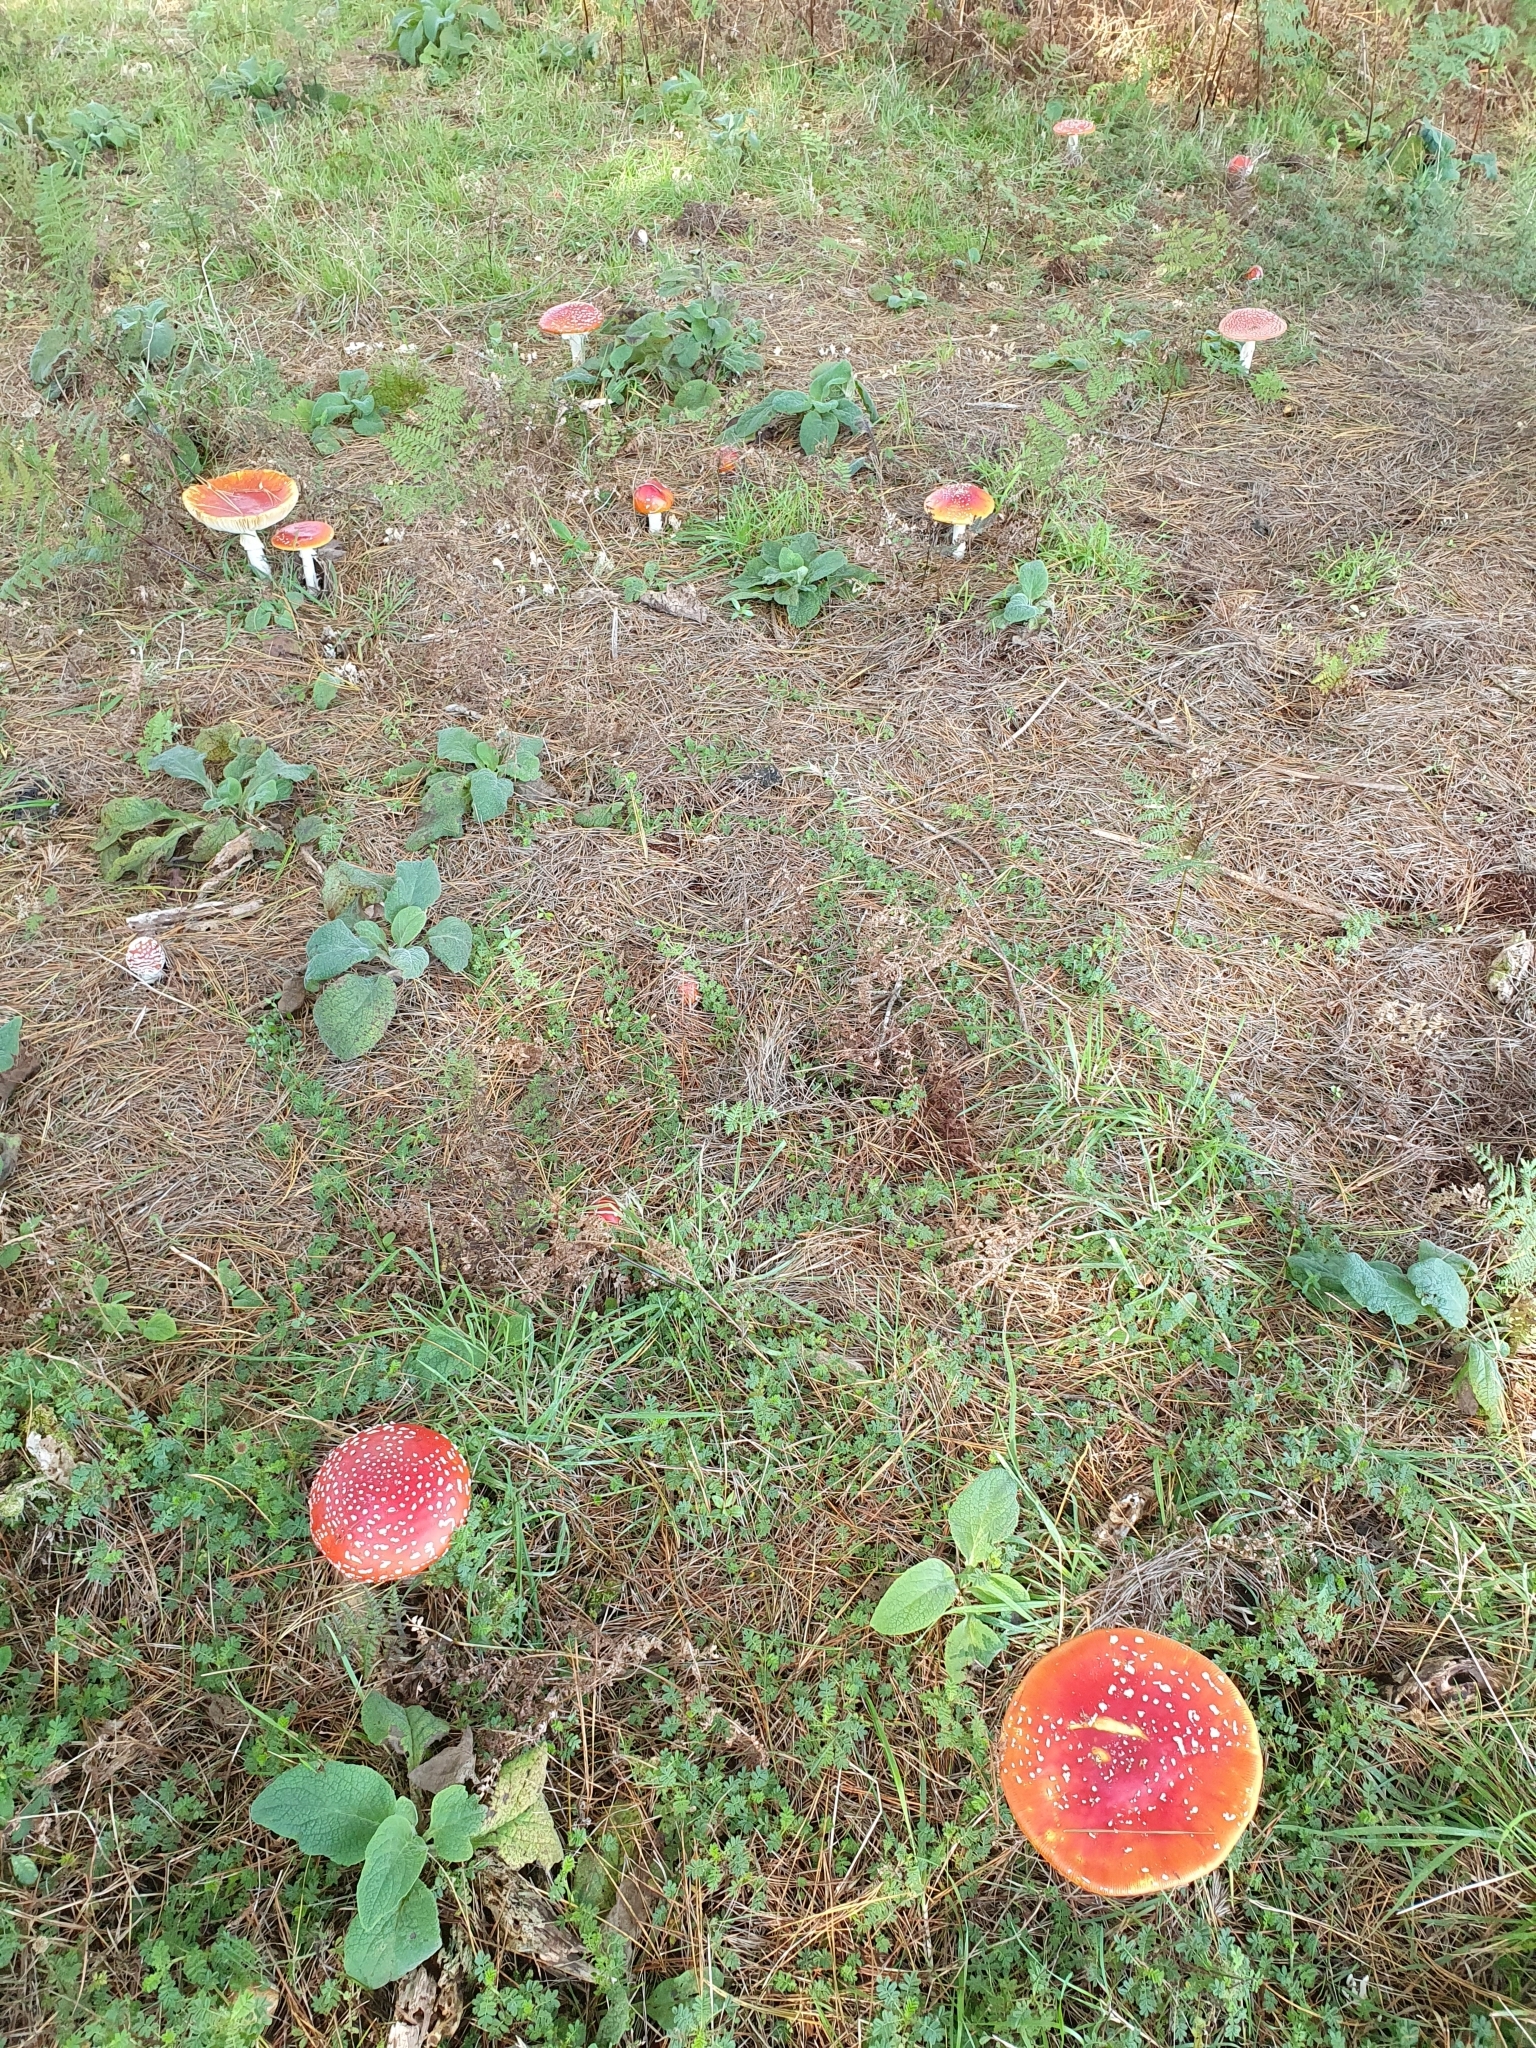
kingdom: Fungi
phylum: Basidiomycota
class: Agaricomycetes
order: Agaricales
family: Amanitaceae
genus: Amanita
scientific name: Amanita muscaria
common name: Fly agaric
